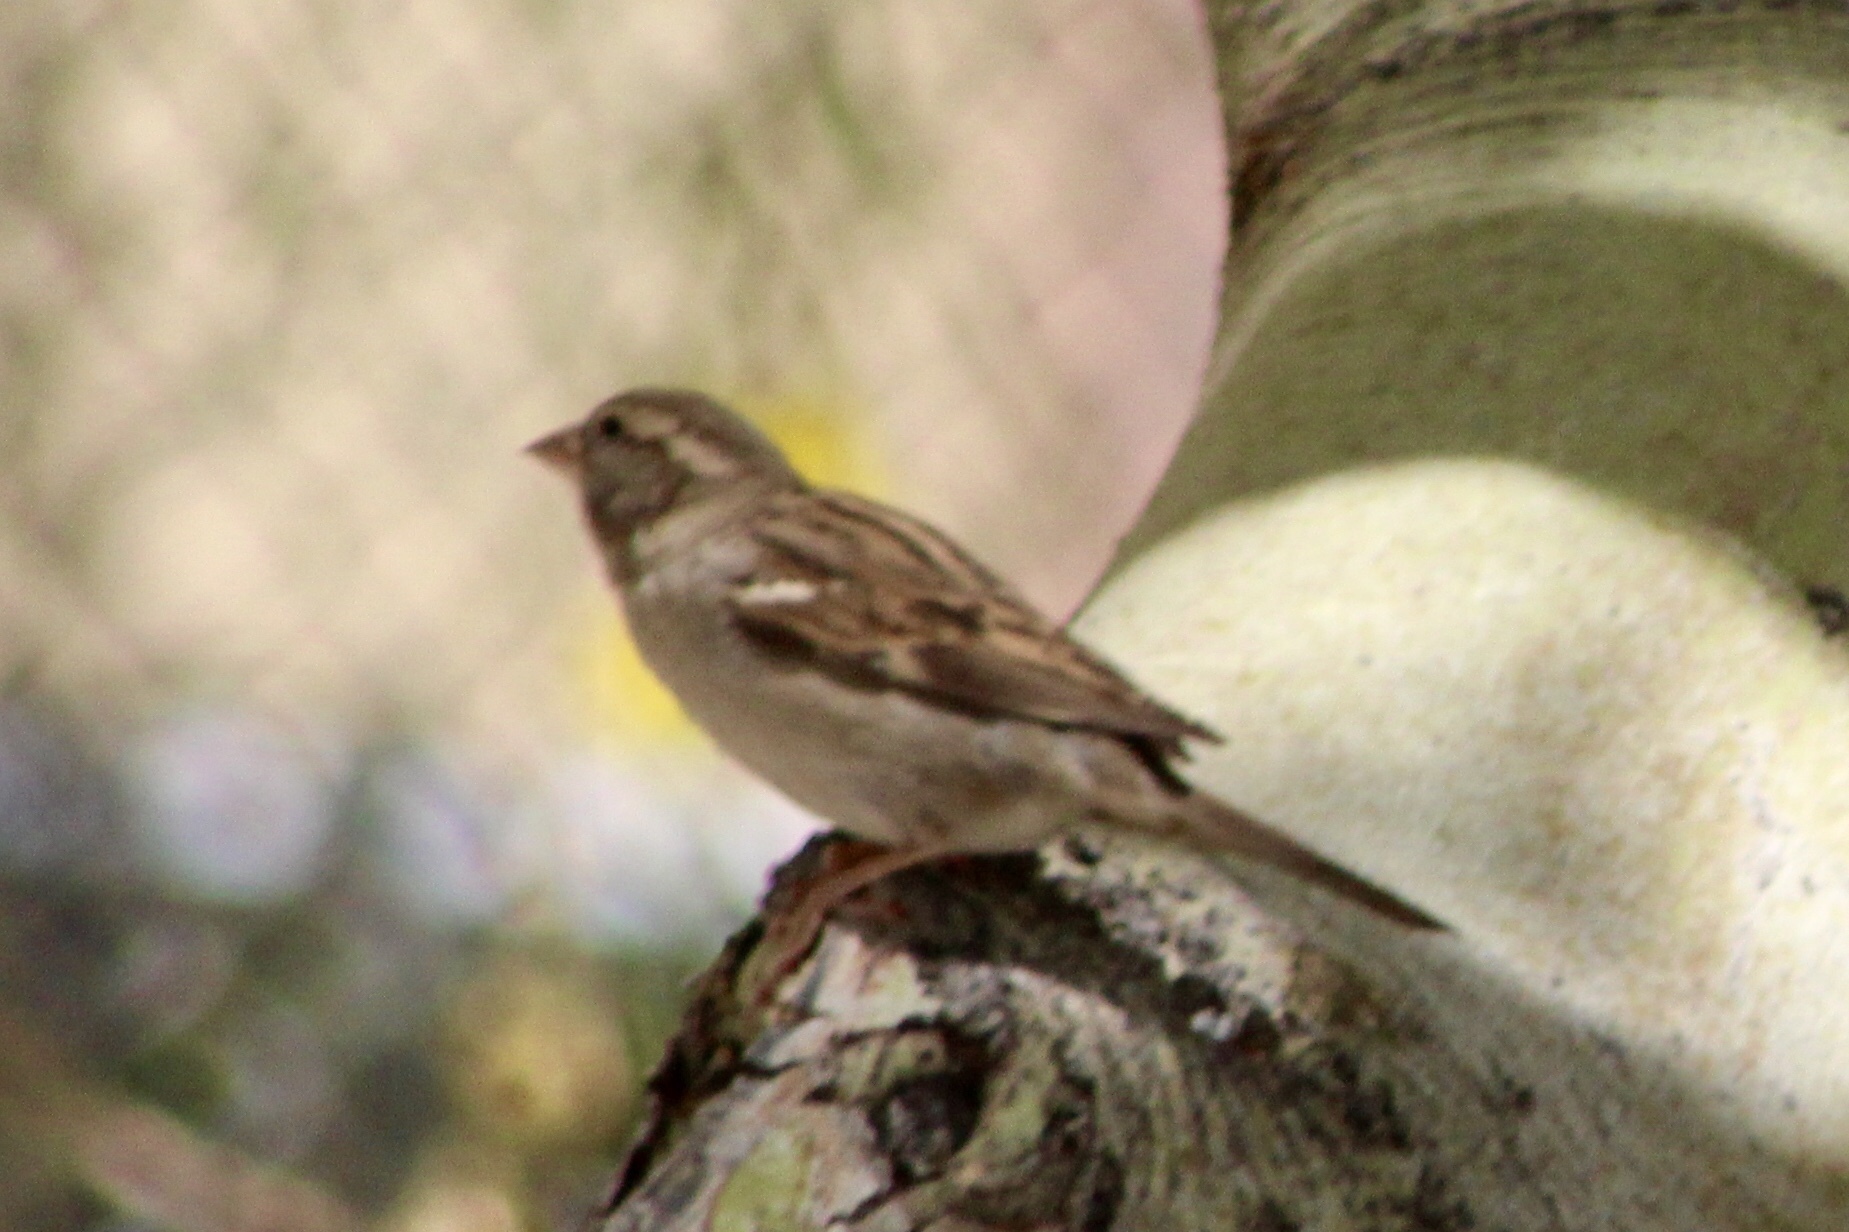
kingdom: Animalia
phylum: Chordata
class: Aves
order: Passeriformes
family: Passeridae
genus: Passer
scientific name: Passer domesticus
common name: House sparrow
